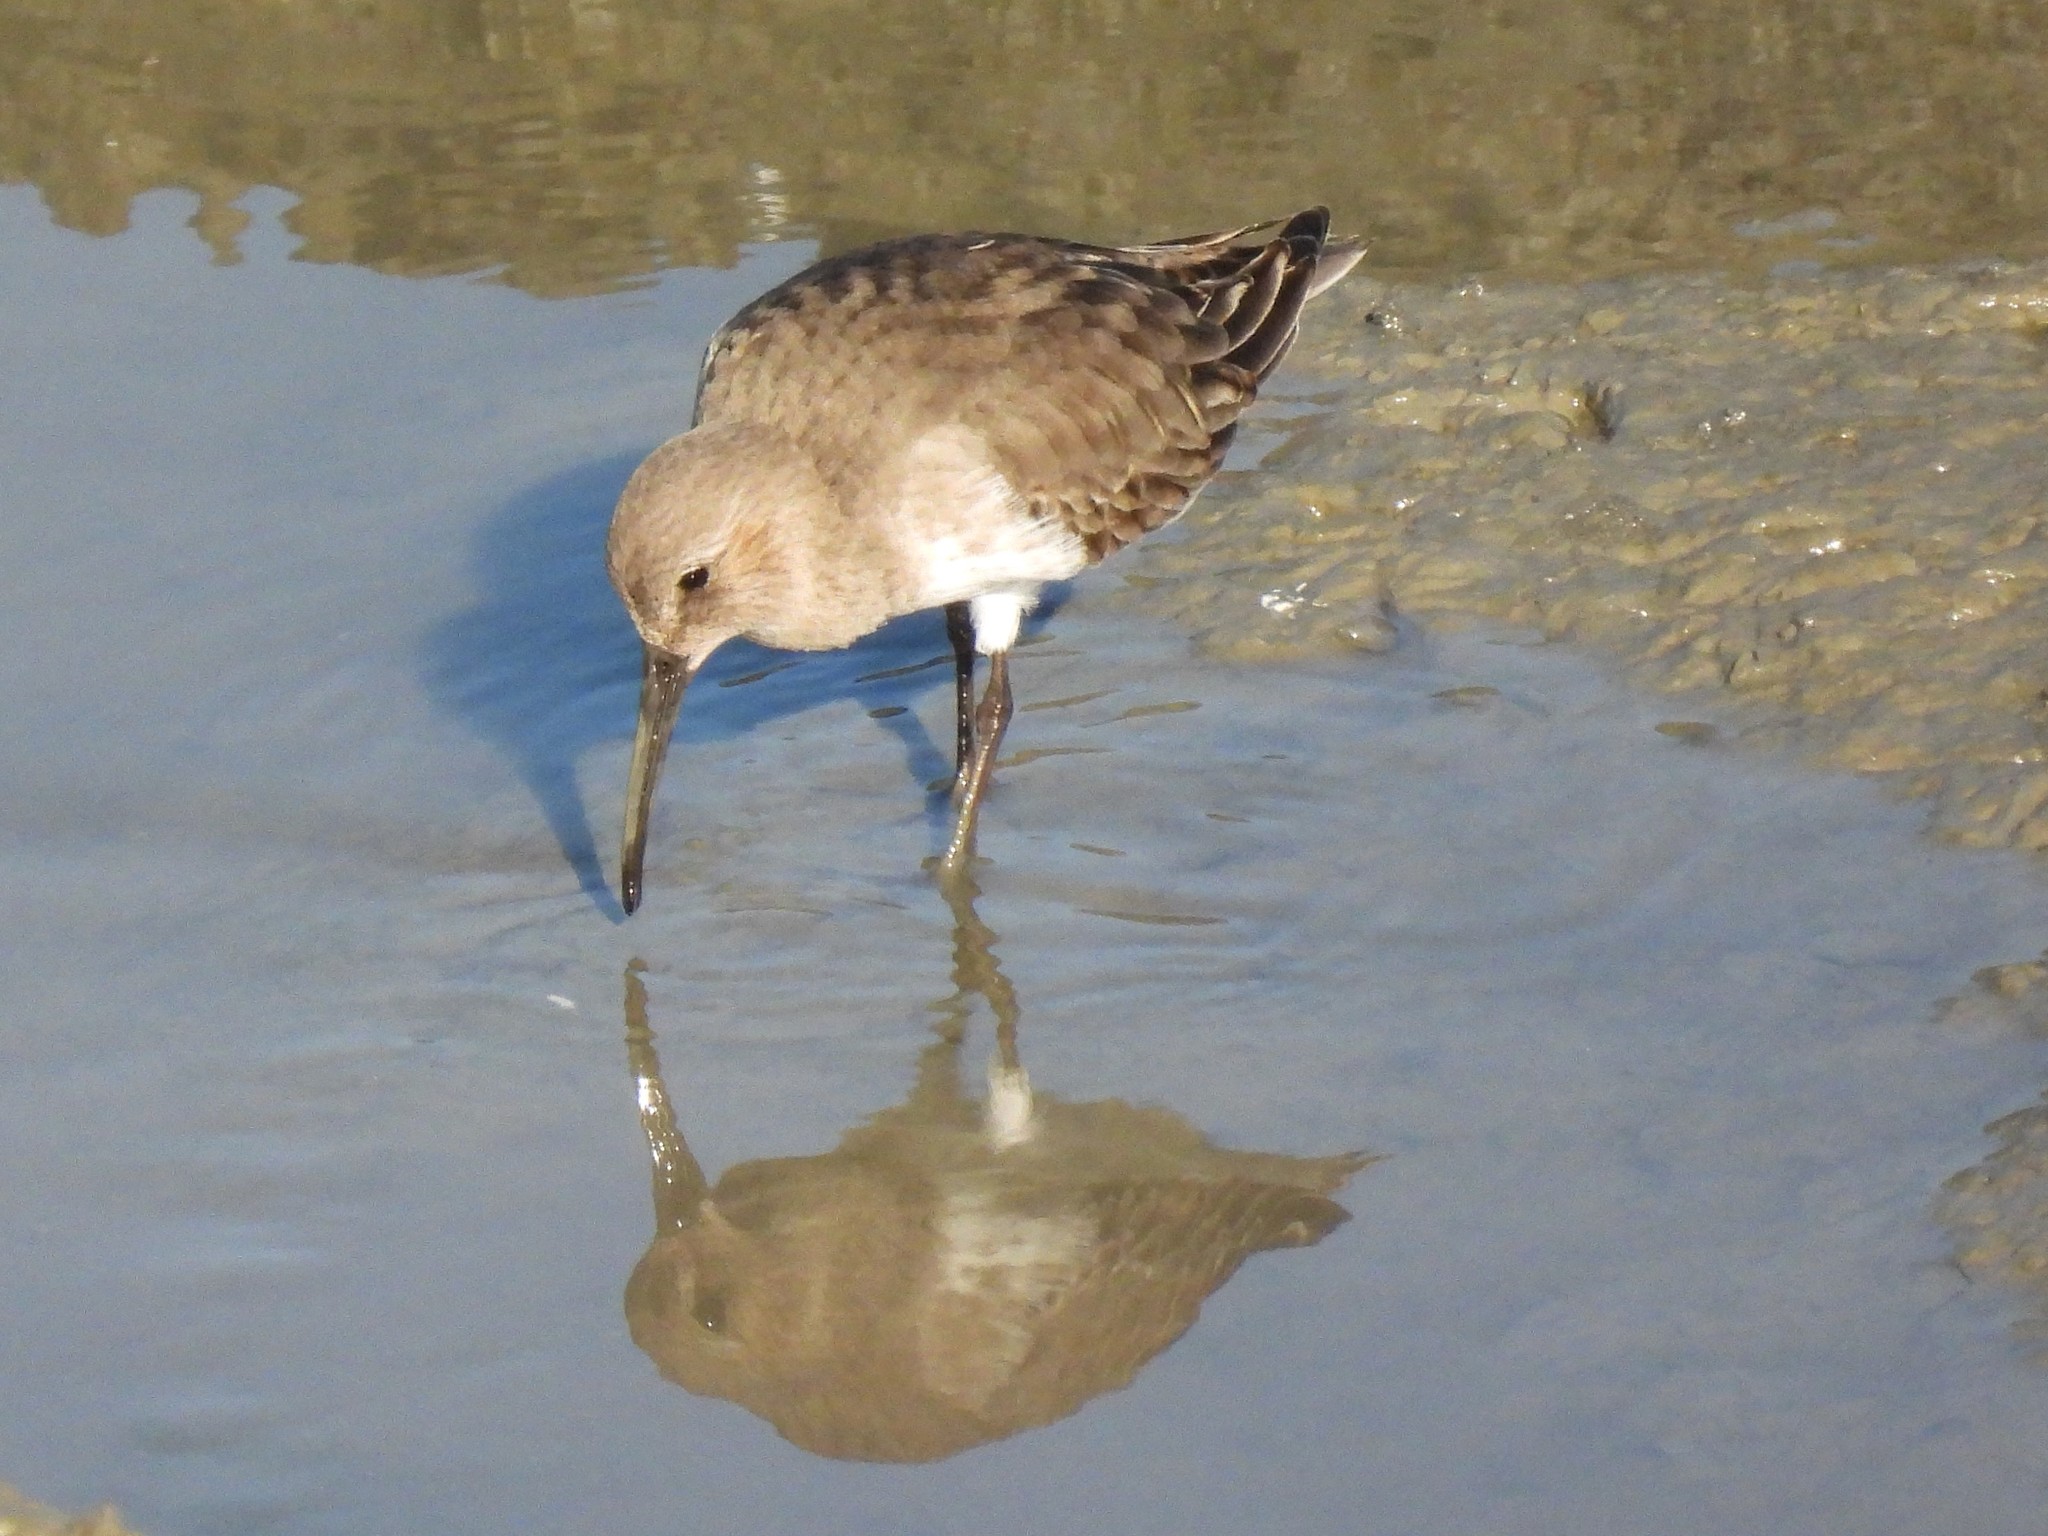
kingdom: Animalia
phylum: Chordata
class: Aves
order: Charadriiformes
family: Scolopacidae
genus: Calidris
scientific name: Calidris alpina
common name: Dunlin
